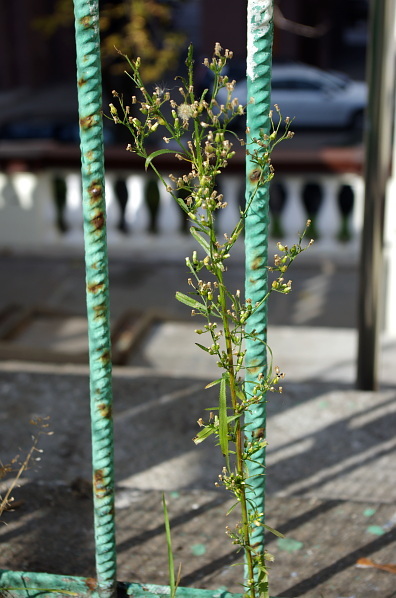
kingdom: Plantae
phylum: Tracheophyta
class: Magnoliopsida
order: Asterales
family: Asteraceae
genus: Erigeron
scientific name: Erigeron canadensis
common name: Canadian fleabane
